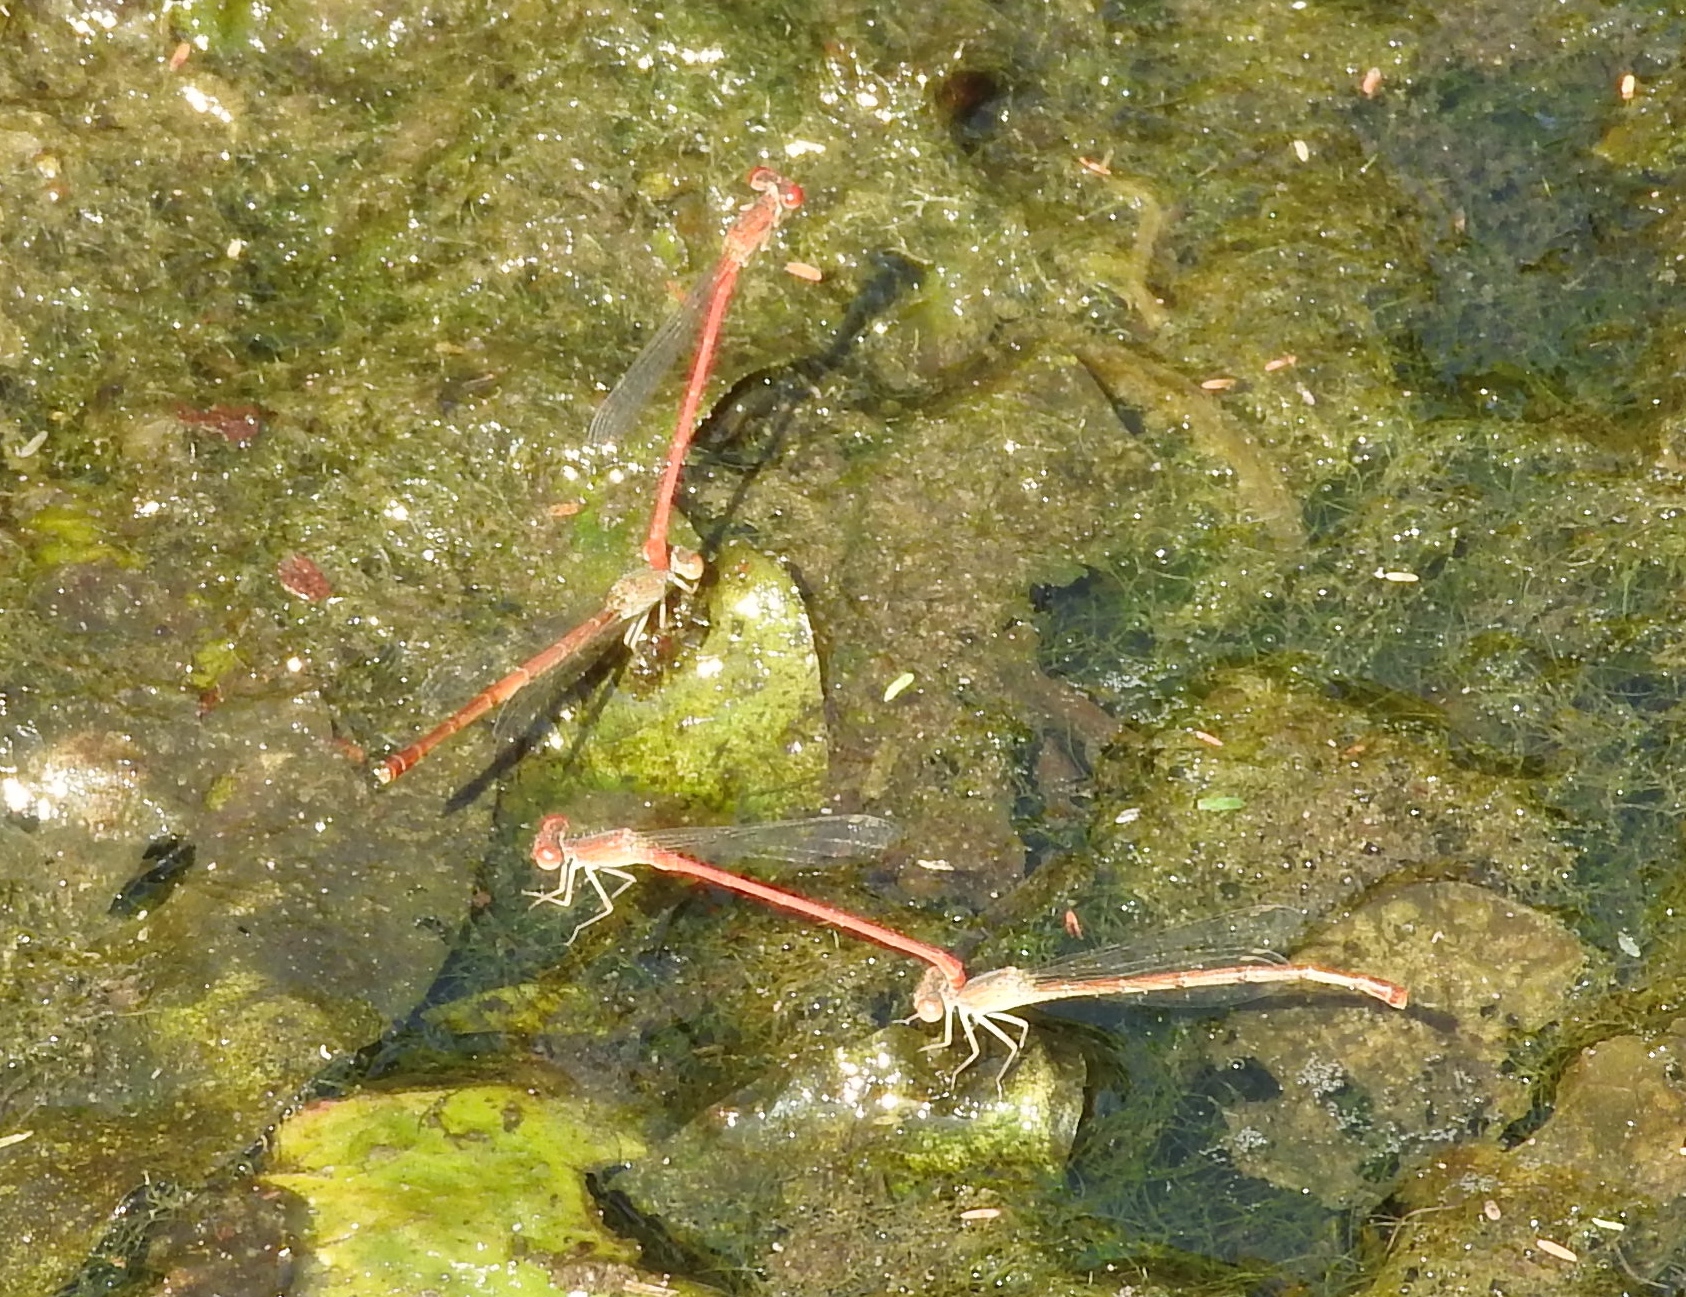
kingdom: Animalia
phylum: Arthropoda
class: Insecta
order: Odonata
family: Coenagrionidae
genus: Telebasis
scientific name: Telebasis salva
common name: Desert firetail
